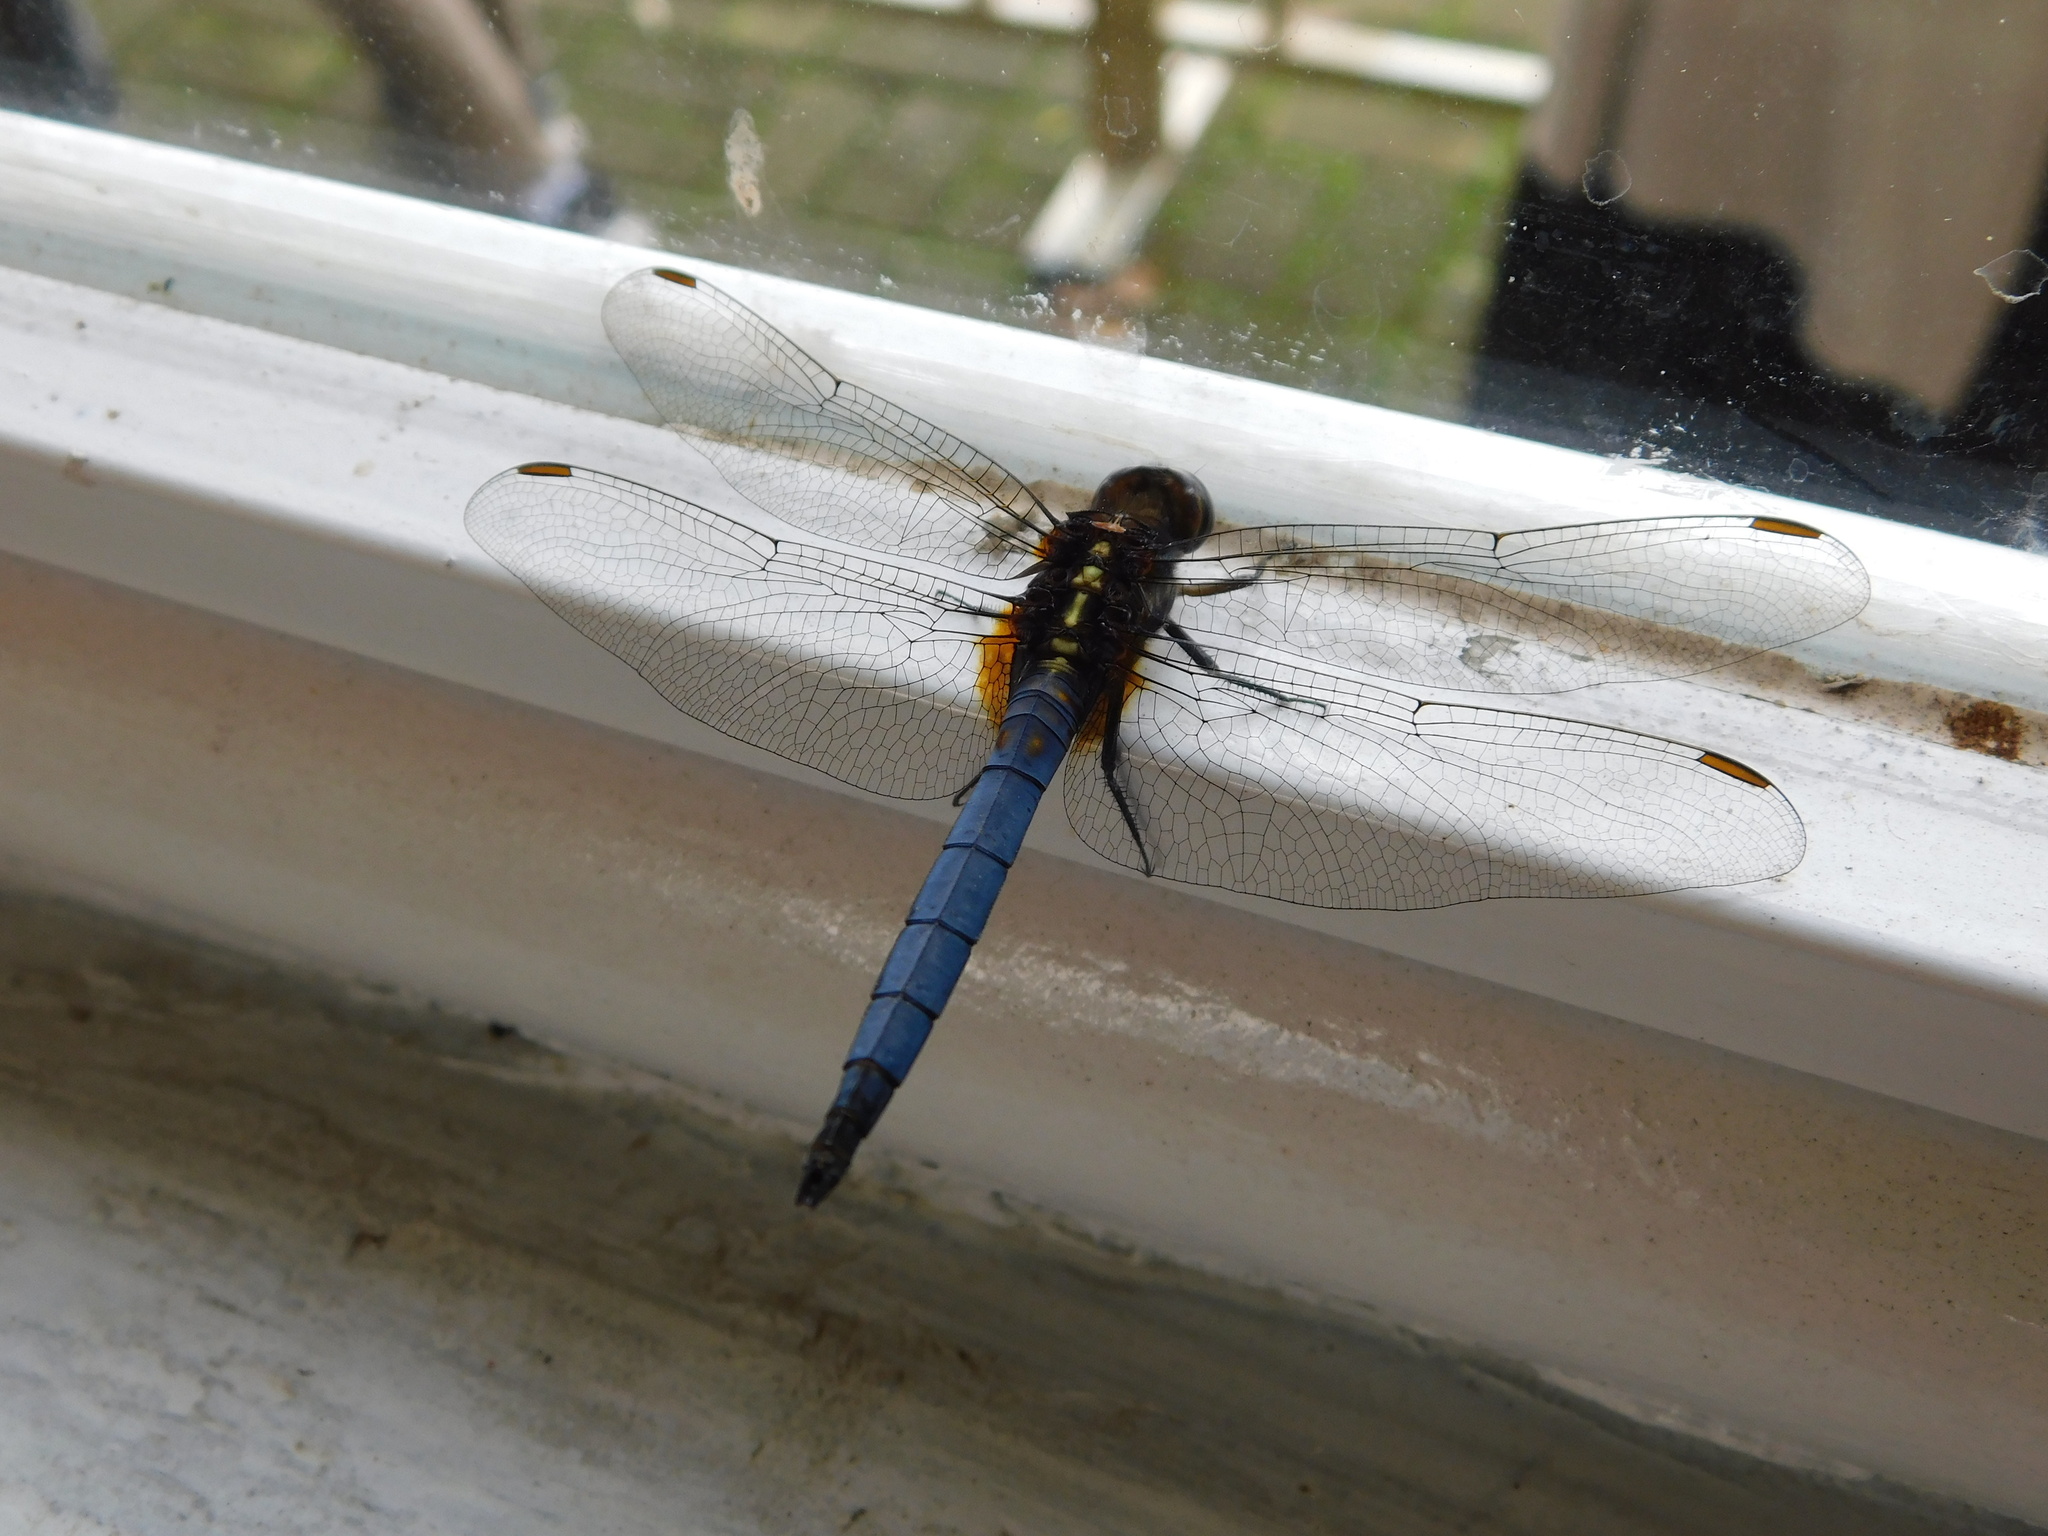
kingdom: Animalia
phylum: Arthropoda
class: Insecta
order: Odonata
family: Libellulidae
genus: Orthetrum
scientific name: Orthetrum glaucum
